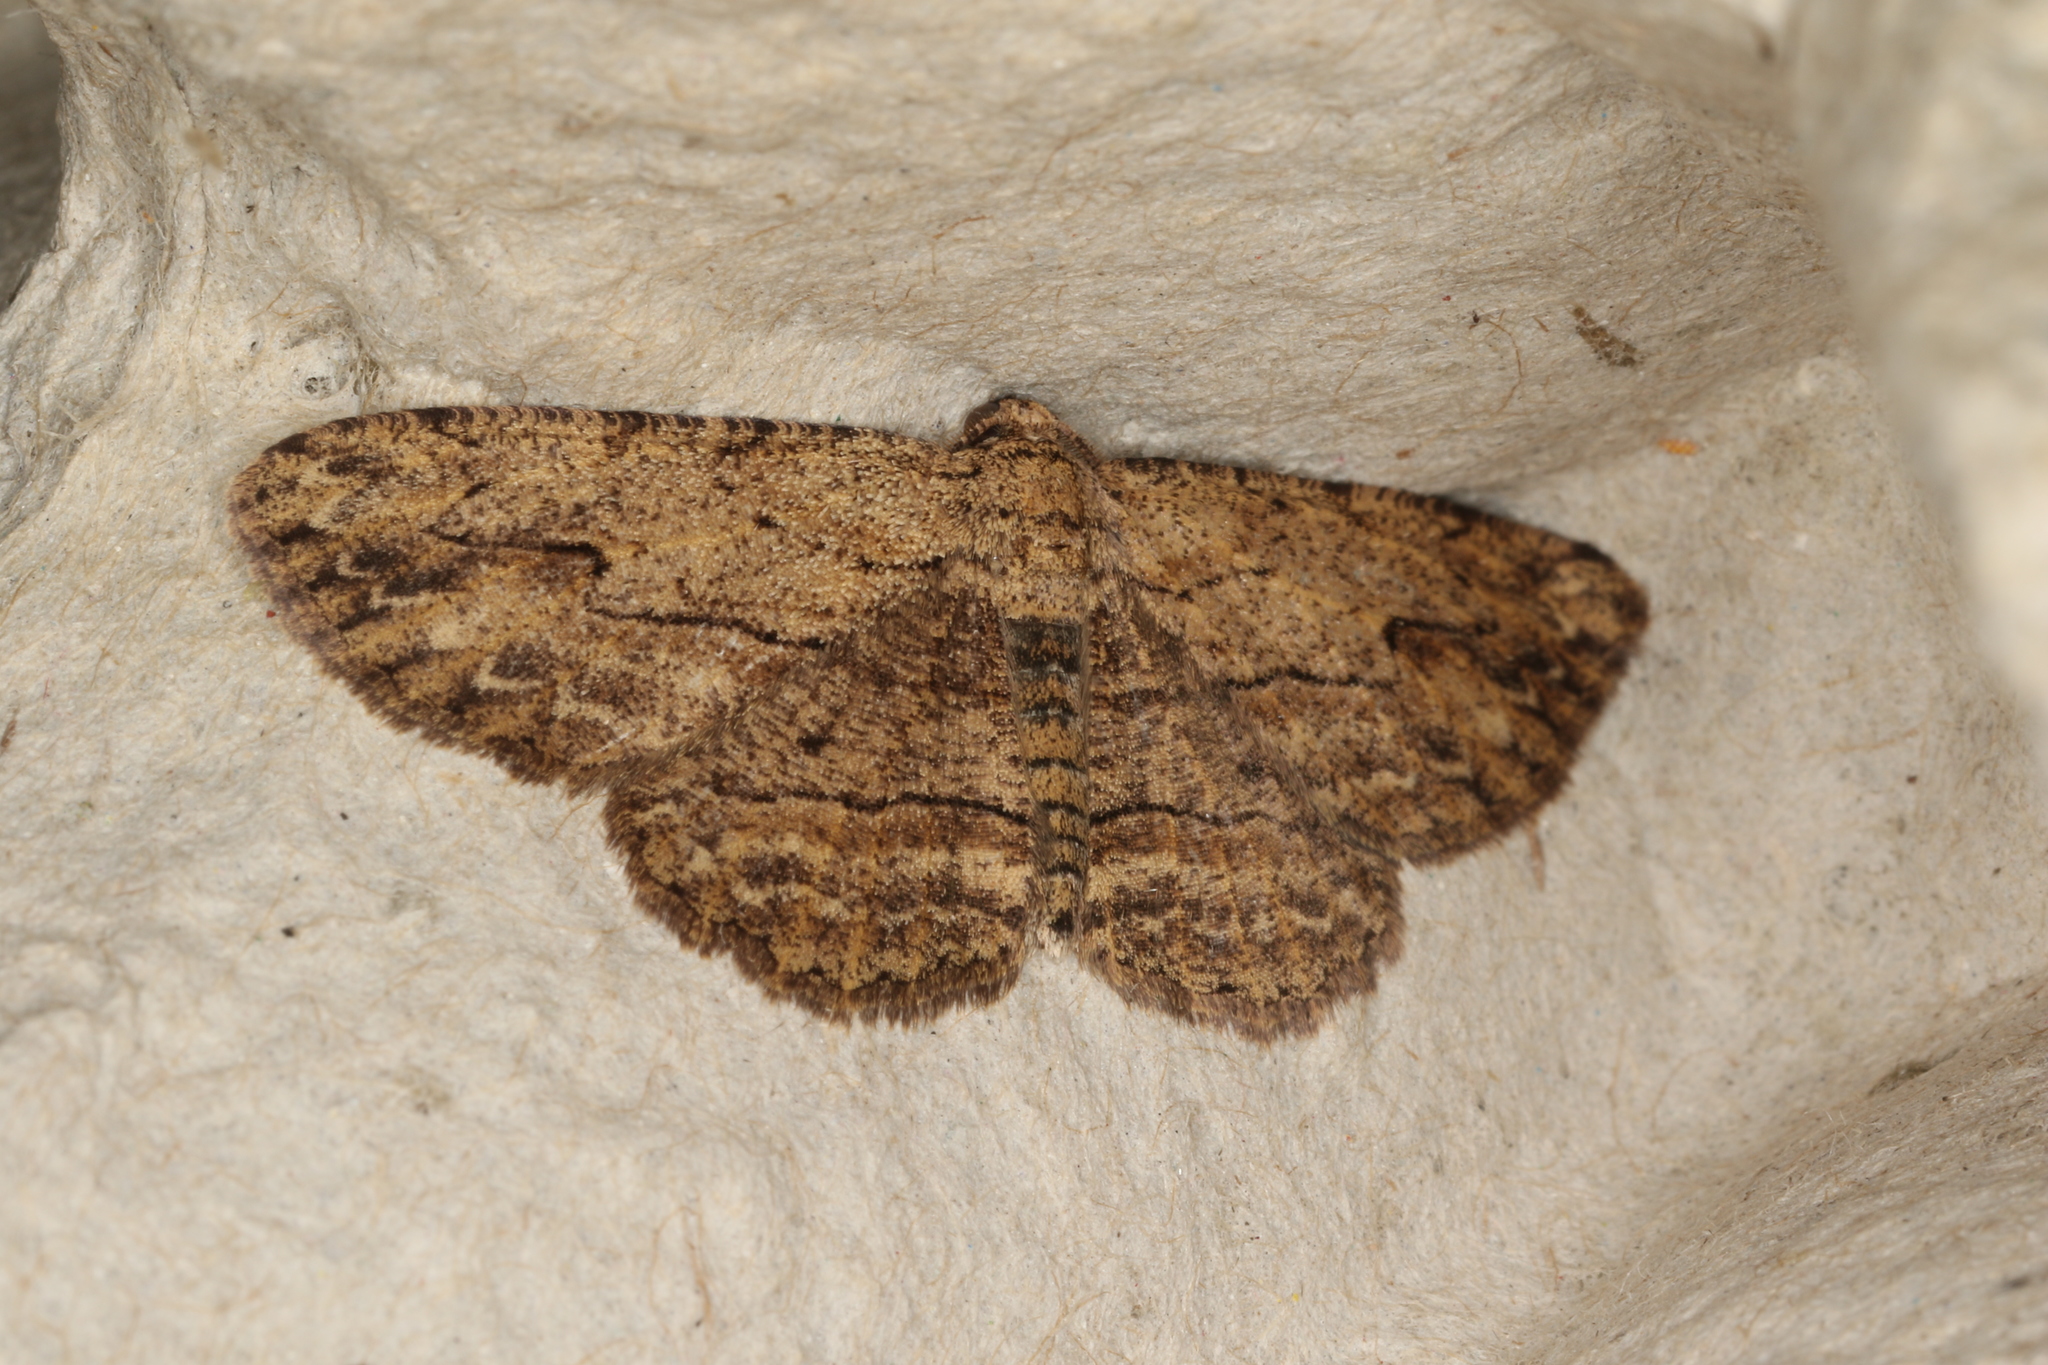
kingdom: Animalia
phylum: Arthropoda
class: Insecta
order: Lepidoptera
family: Geometridae
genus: Ectropis
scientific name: Ectropis excursaria
